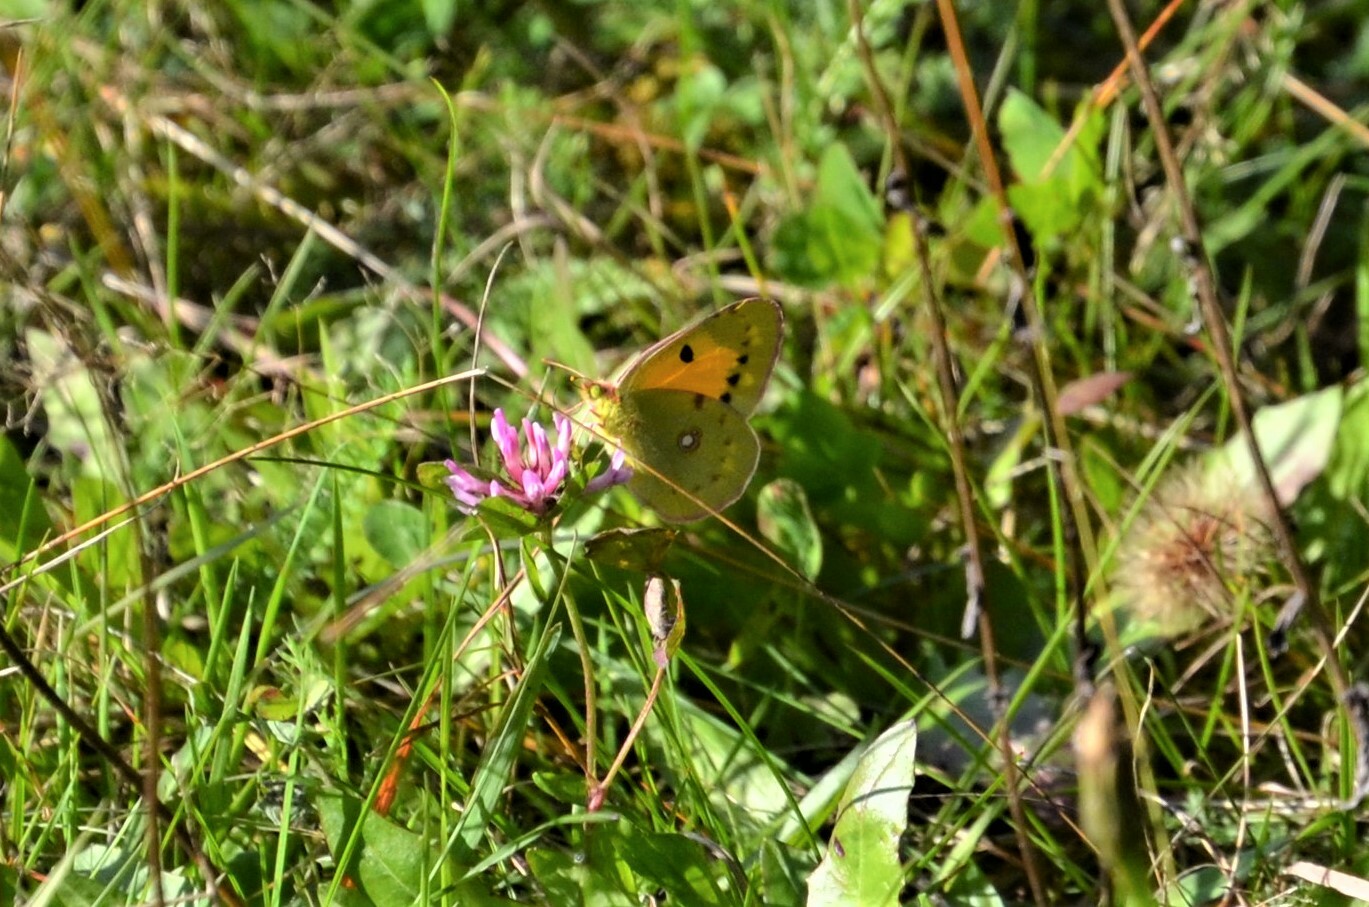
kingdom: Animalia
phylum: Arthropoda
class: Insecta
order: Lepidoptera
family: Pieridae
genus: Colias
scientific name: Colias croceus
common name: Clouded yellow
